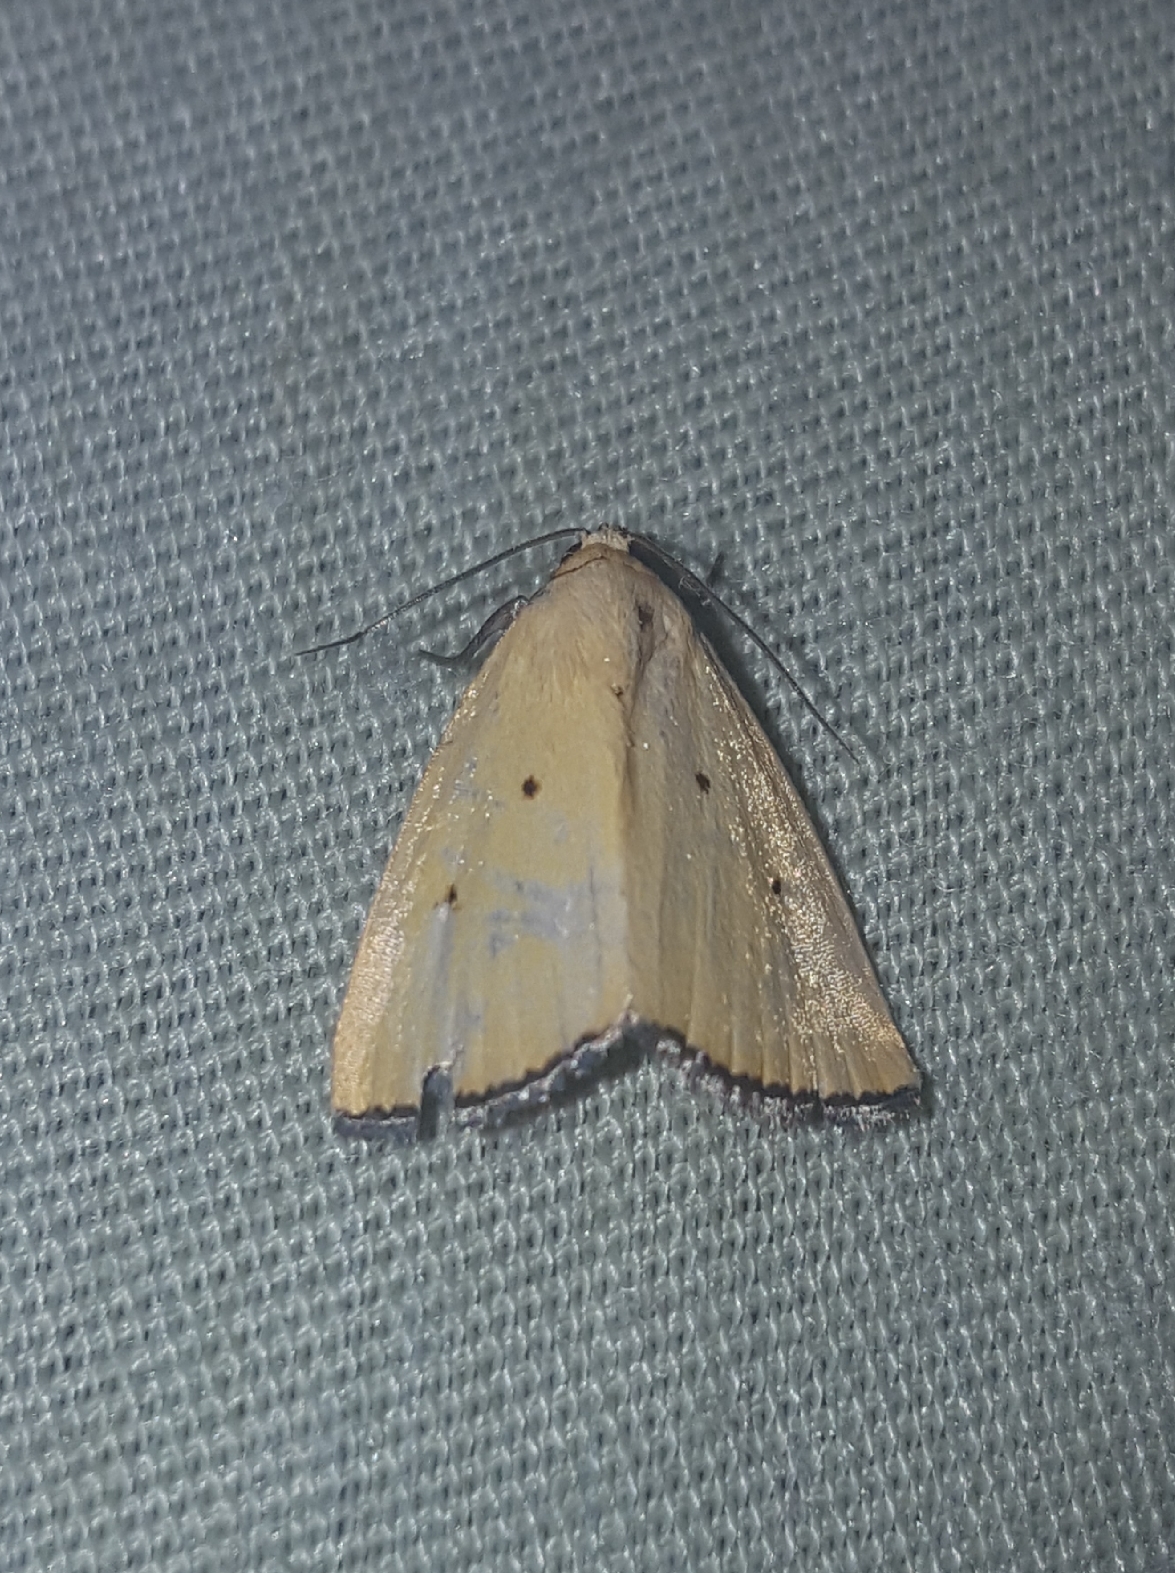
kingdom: Animalia
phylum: Arthropoda
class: Insecta
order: Lepidoptera
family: Noctuidae
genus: Marimatha
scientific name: Marimatha nigrofimbria
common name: Black-bordered lemon moth
